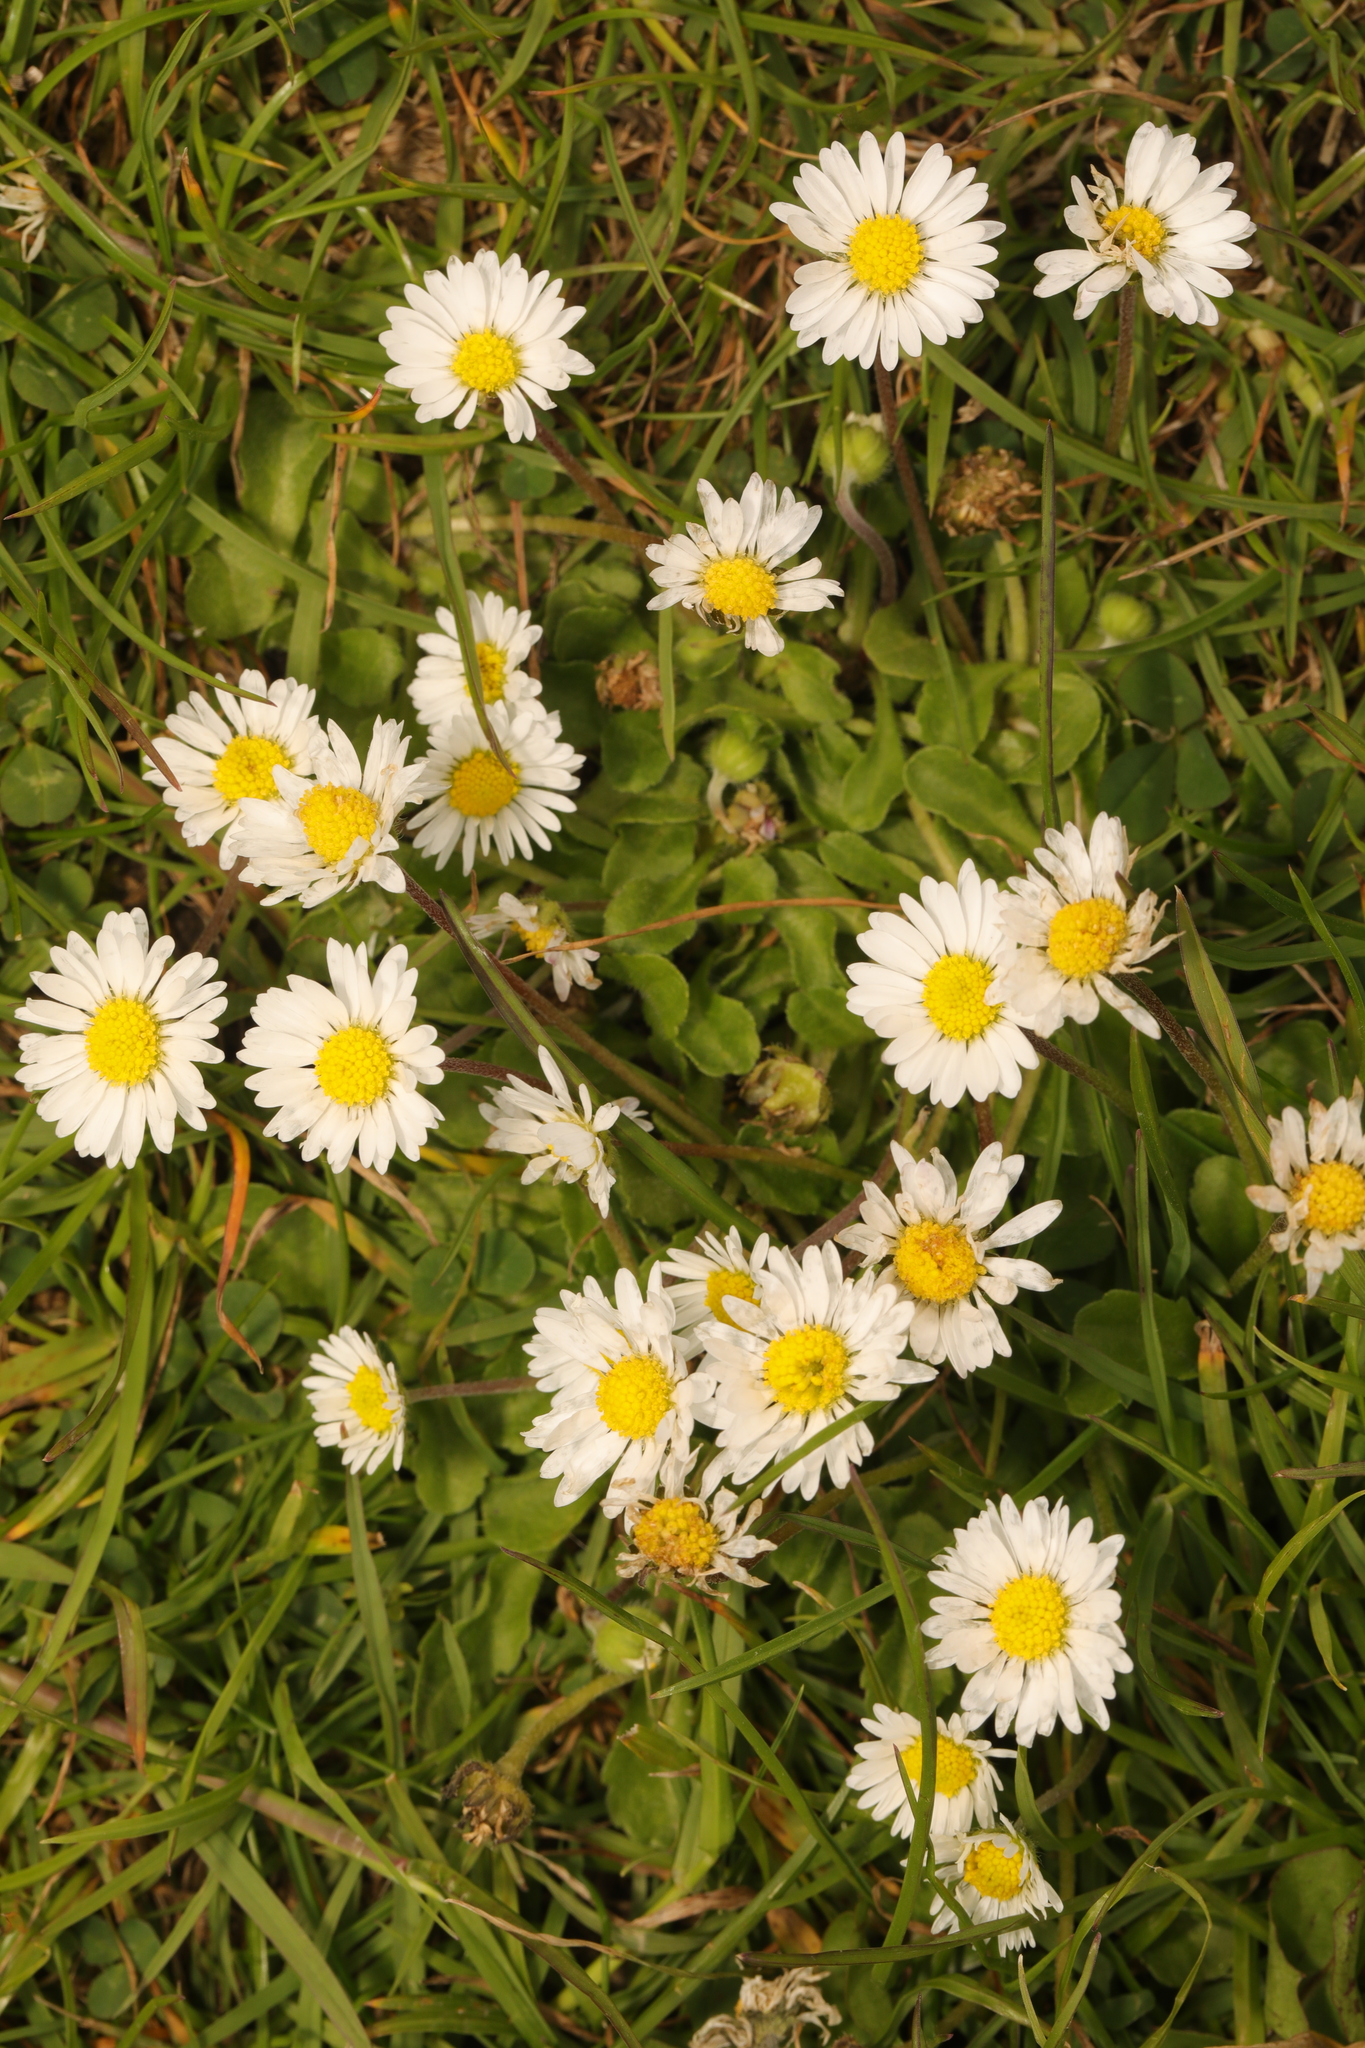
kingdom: Plantae
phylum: Tracheophyta
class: Magnoliopsida
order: Asterales
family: Asteraceae
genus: Bellis
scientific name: Bellis perennis
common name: Lawndaisy
